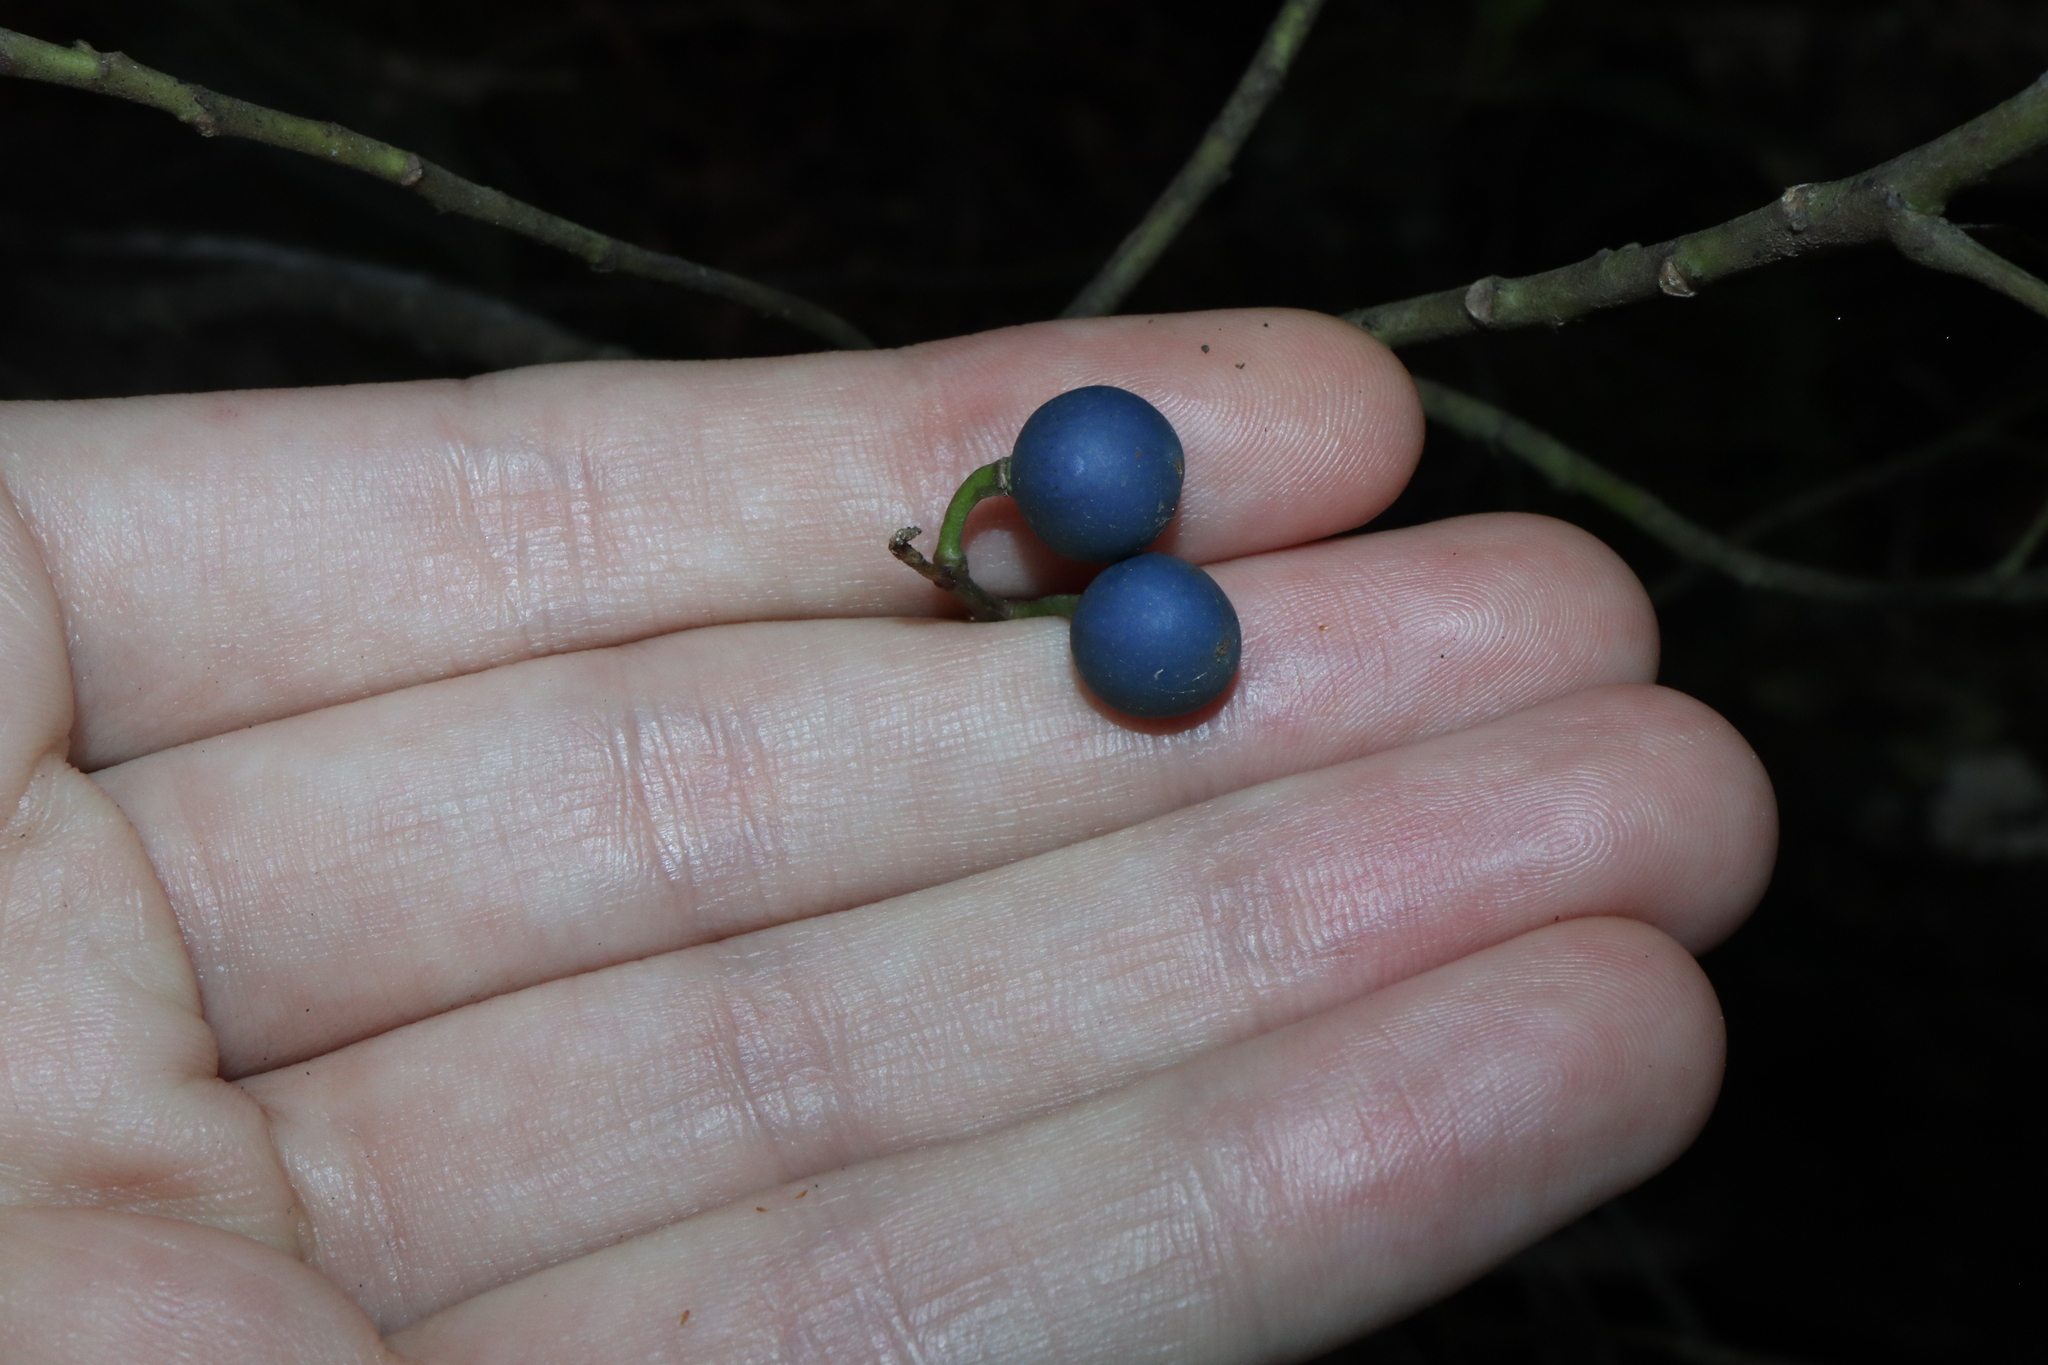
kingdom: Plantae
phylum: Tracheophyta
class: Magnoliopsida
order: Oxalidales
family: Elaeocarpaceae
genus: Elaeocarpus
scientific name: Elaeocarpus reticulatus
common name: Ash quandong
